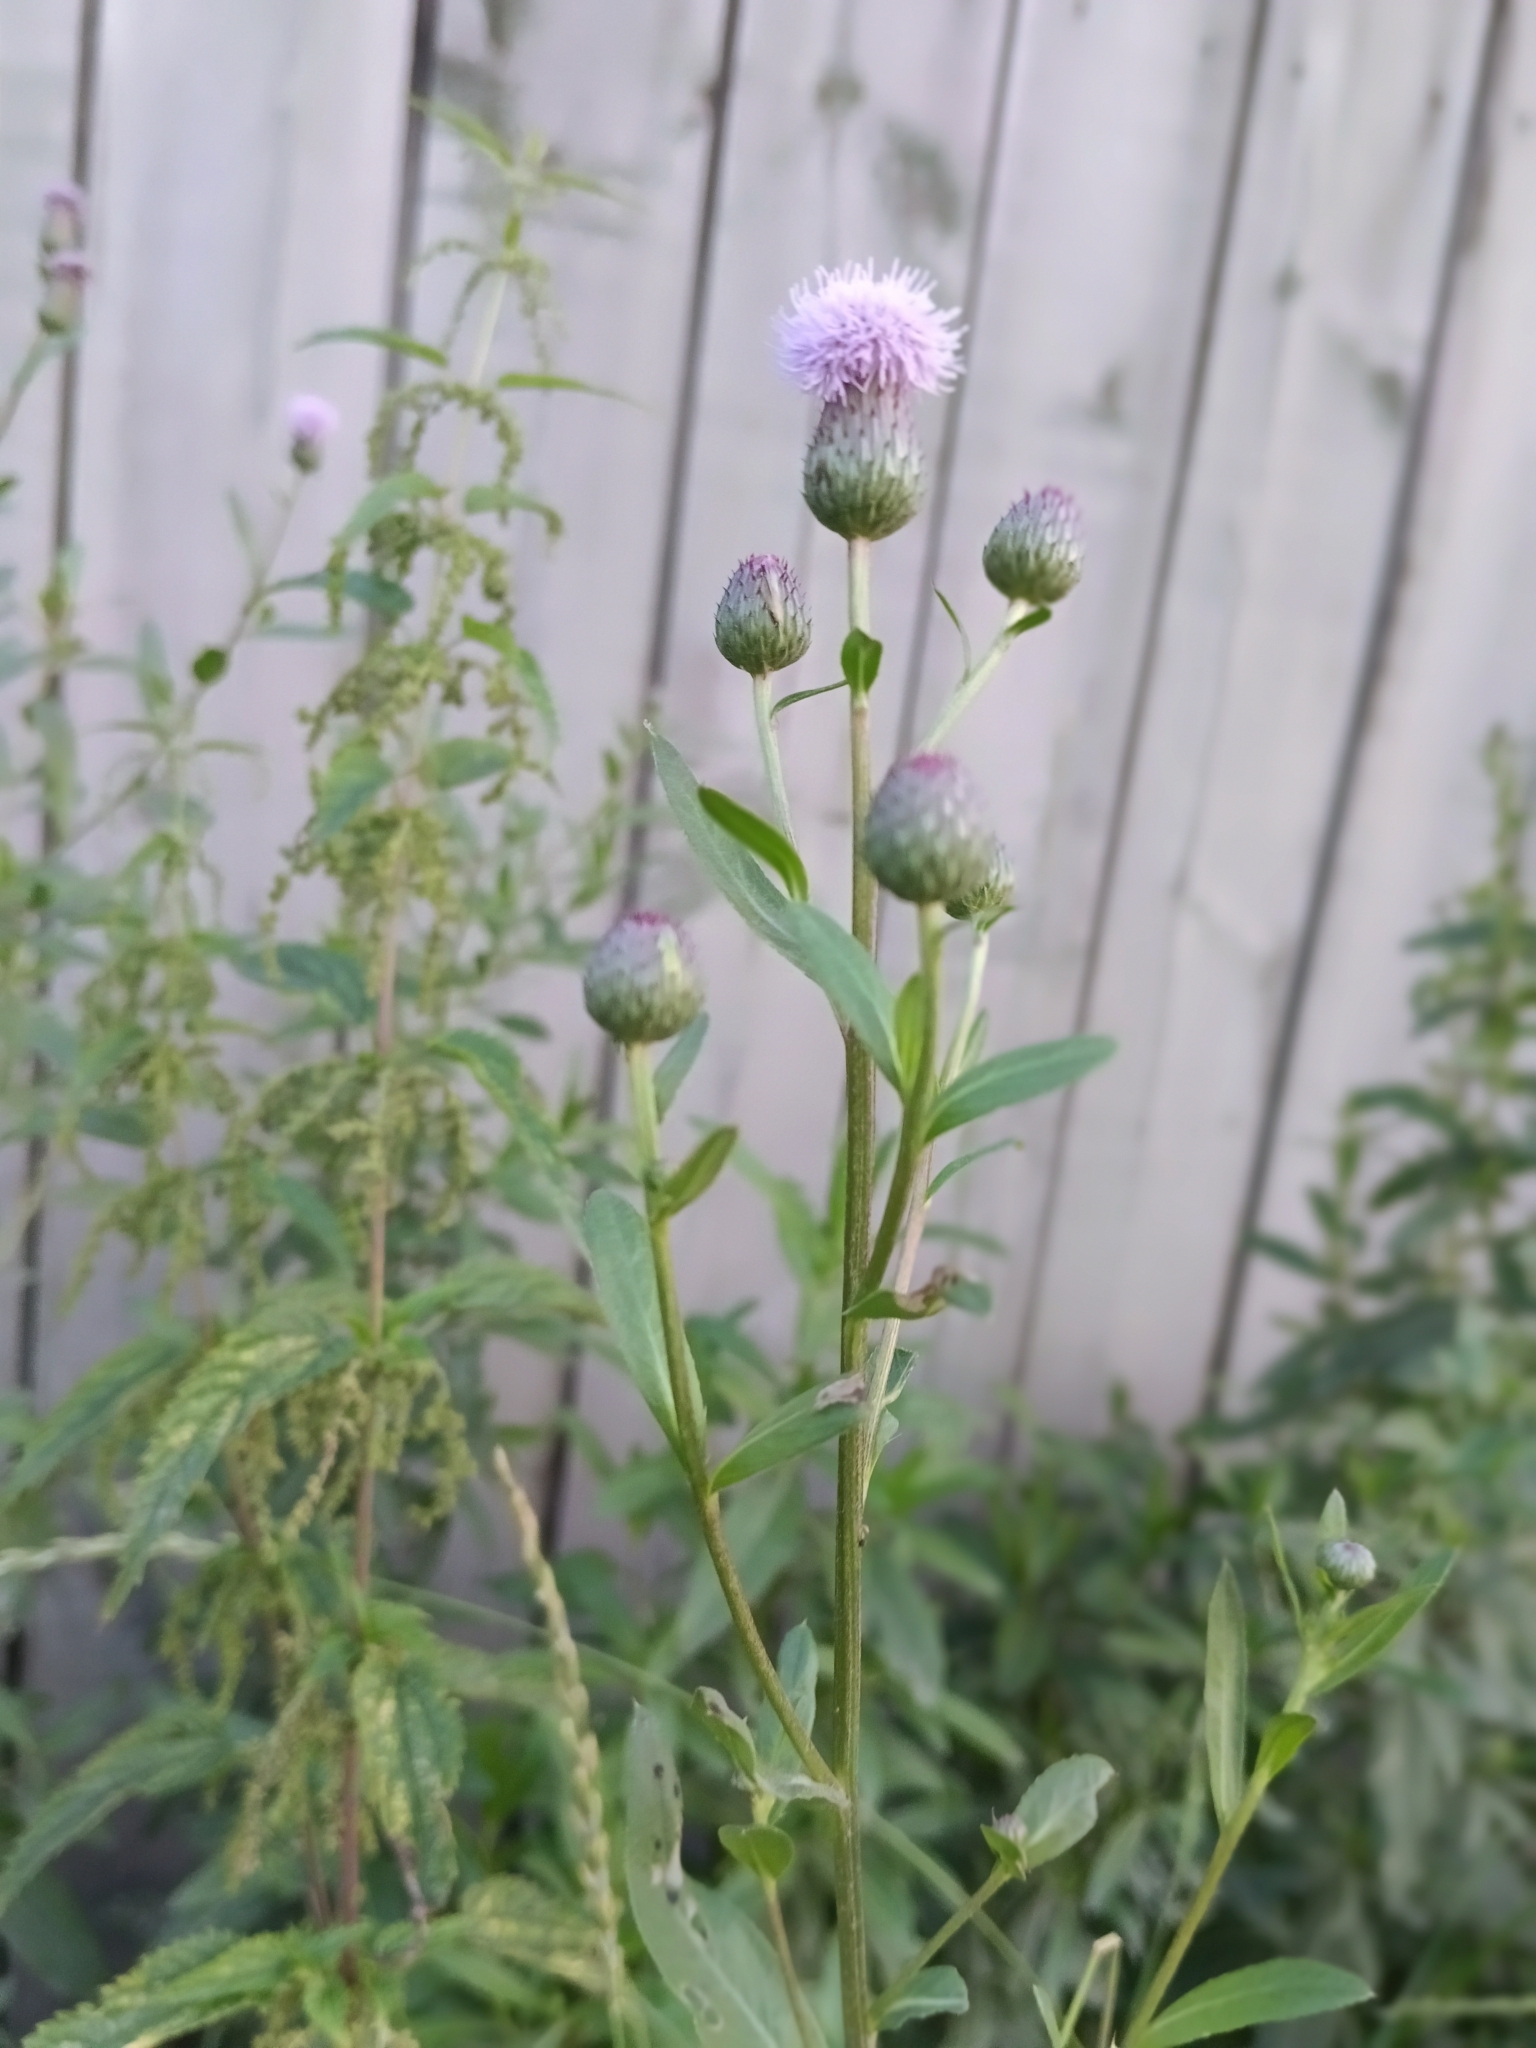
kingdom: Plantae
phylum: Tracheophyta
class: Magnoliopsida
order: Asterales
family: Asteraceae
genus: Cirsium
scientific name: Cirsium arvense
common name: Creeping thistle
